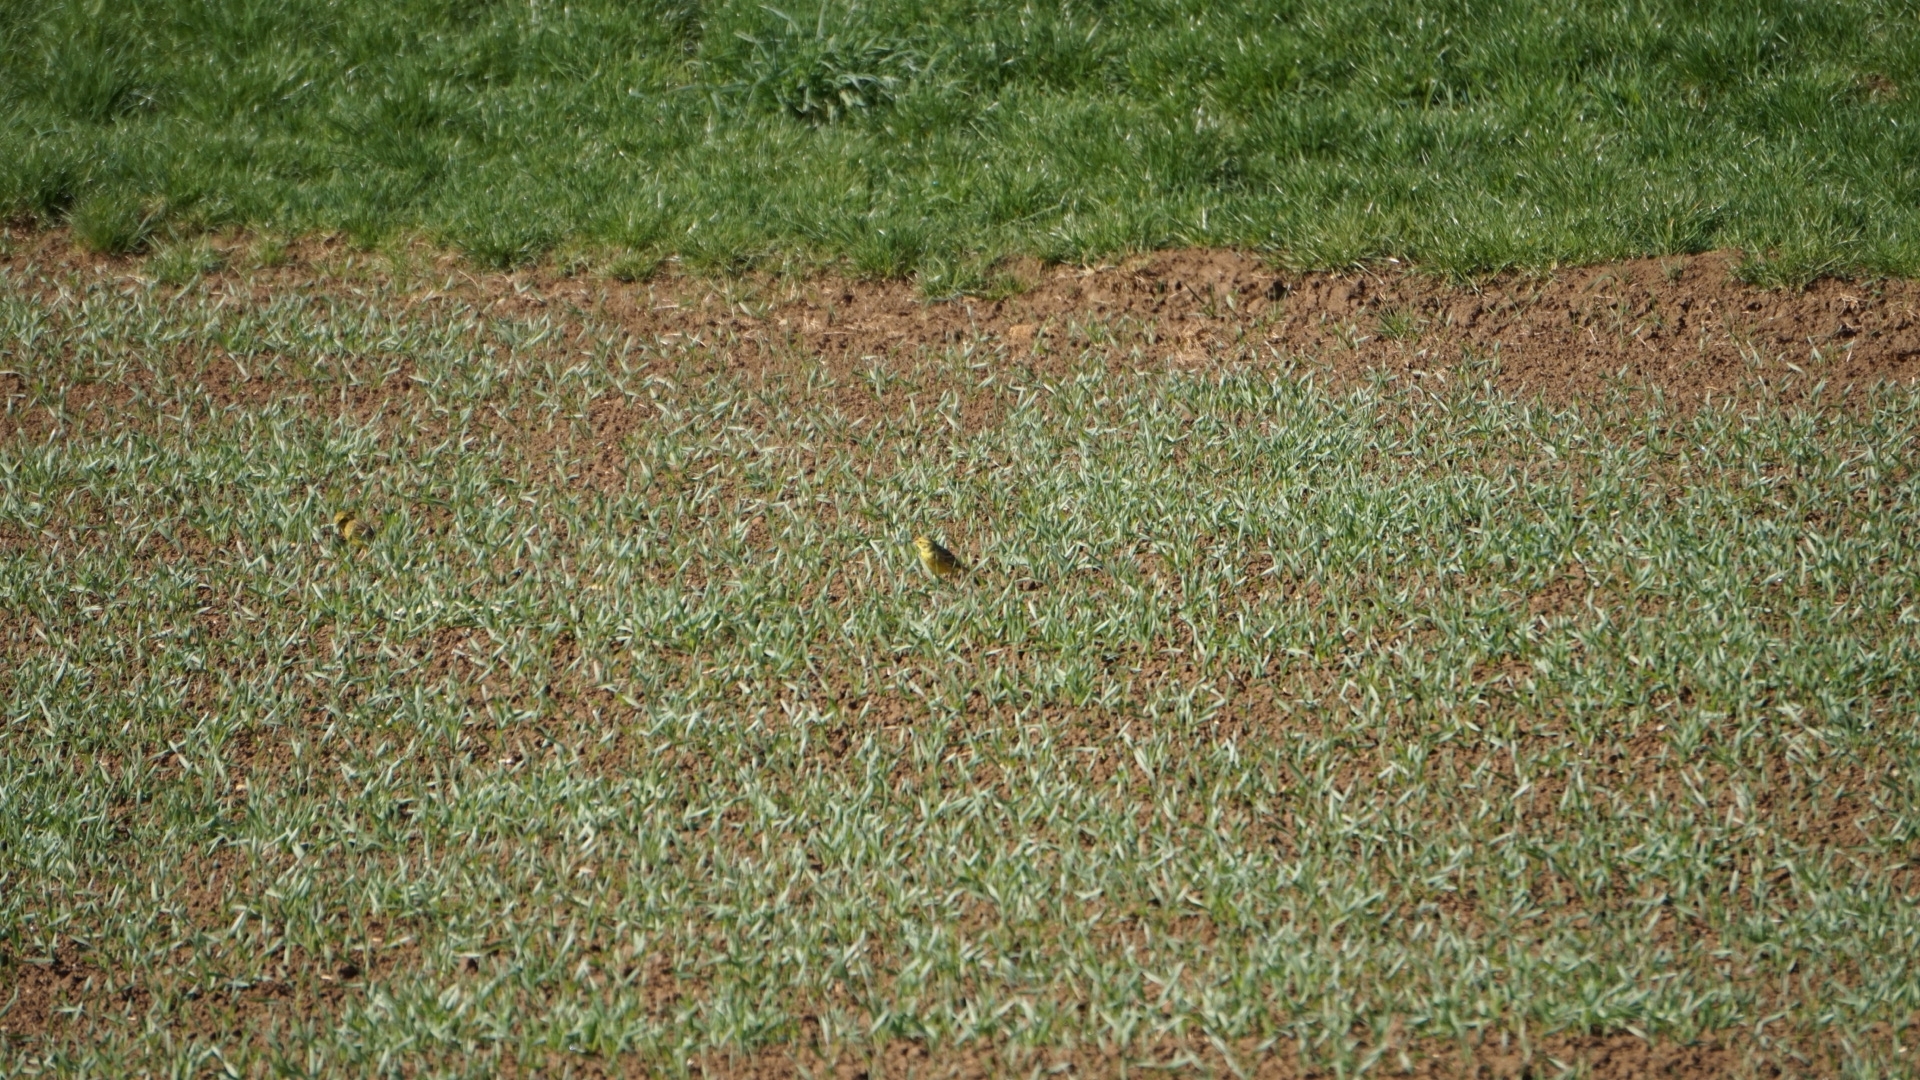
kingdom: Animalia
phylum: Chordata
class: Aves
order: Passeriformes
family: Emberizidae
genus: Emberiza
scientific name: Emberiza citrinella
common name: Yellowhammer
